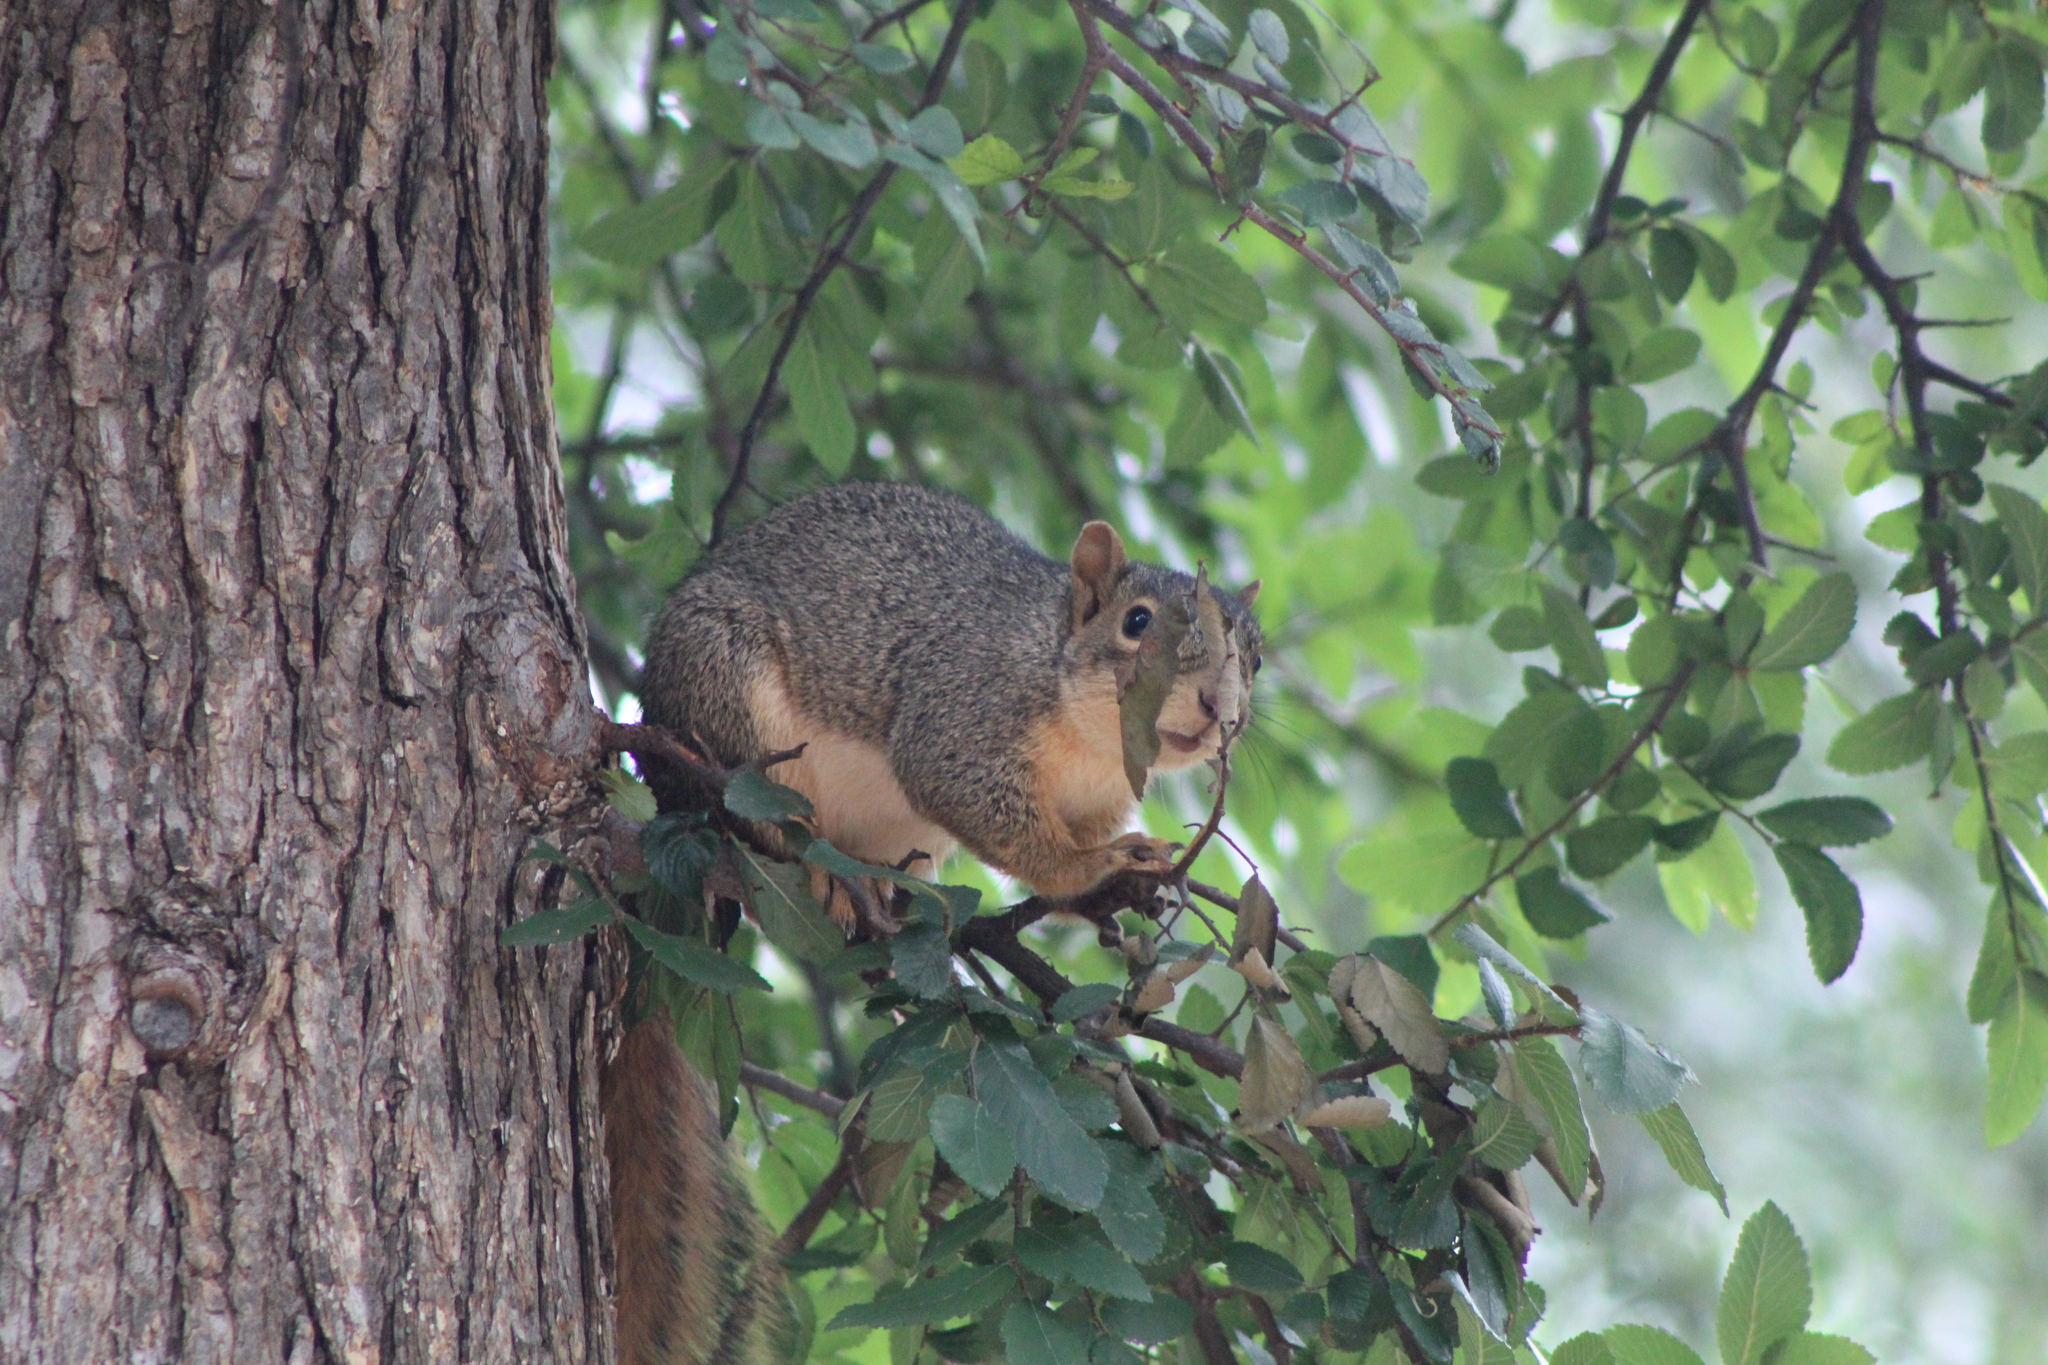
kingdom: Animalia
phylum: Chordata
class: Mammalia
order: Rodentia
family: Sciuridae
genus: Sciurus
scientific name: Sciurus niger
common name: Fox squirrel
